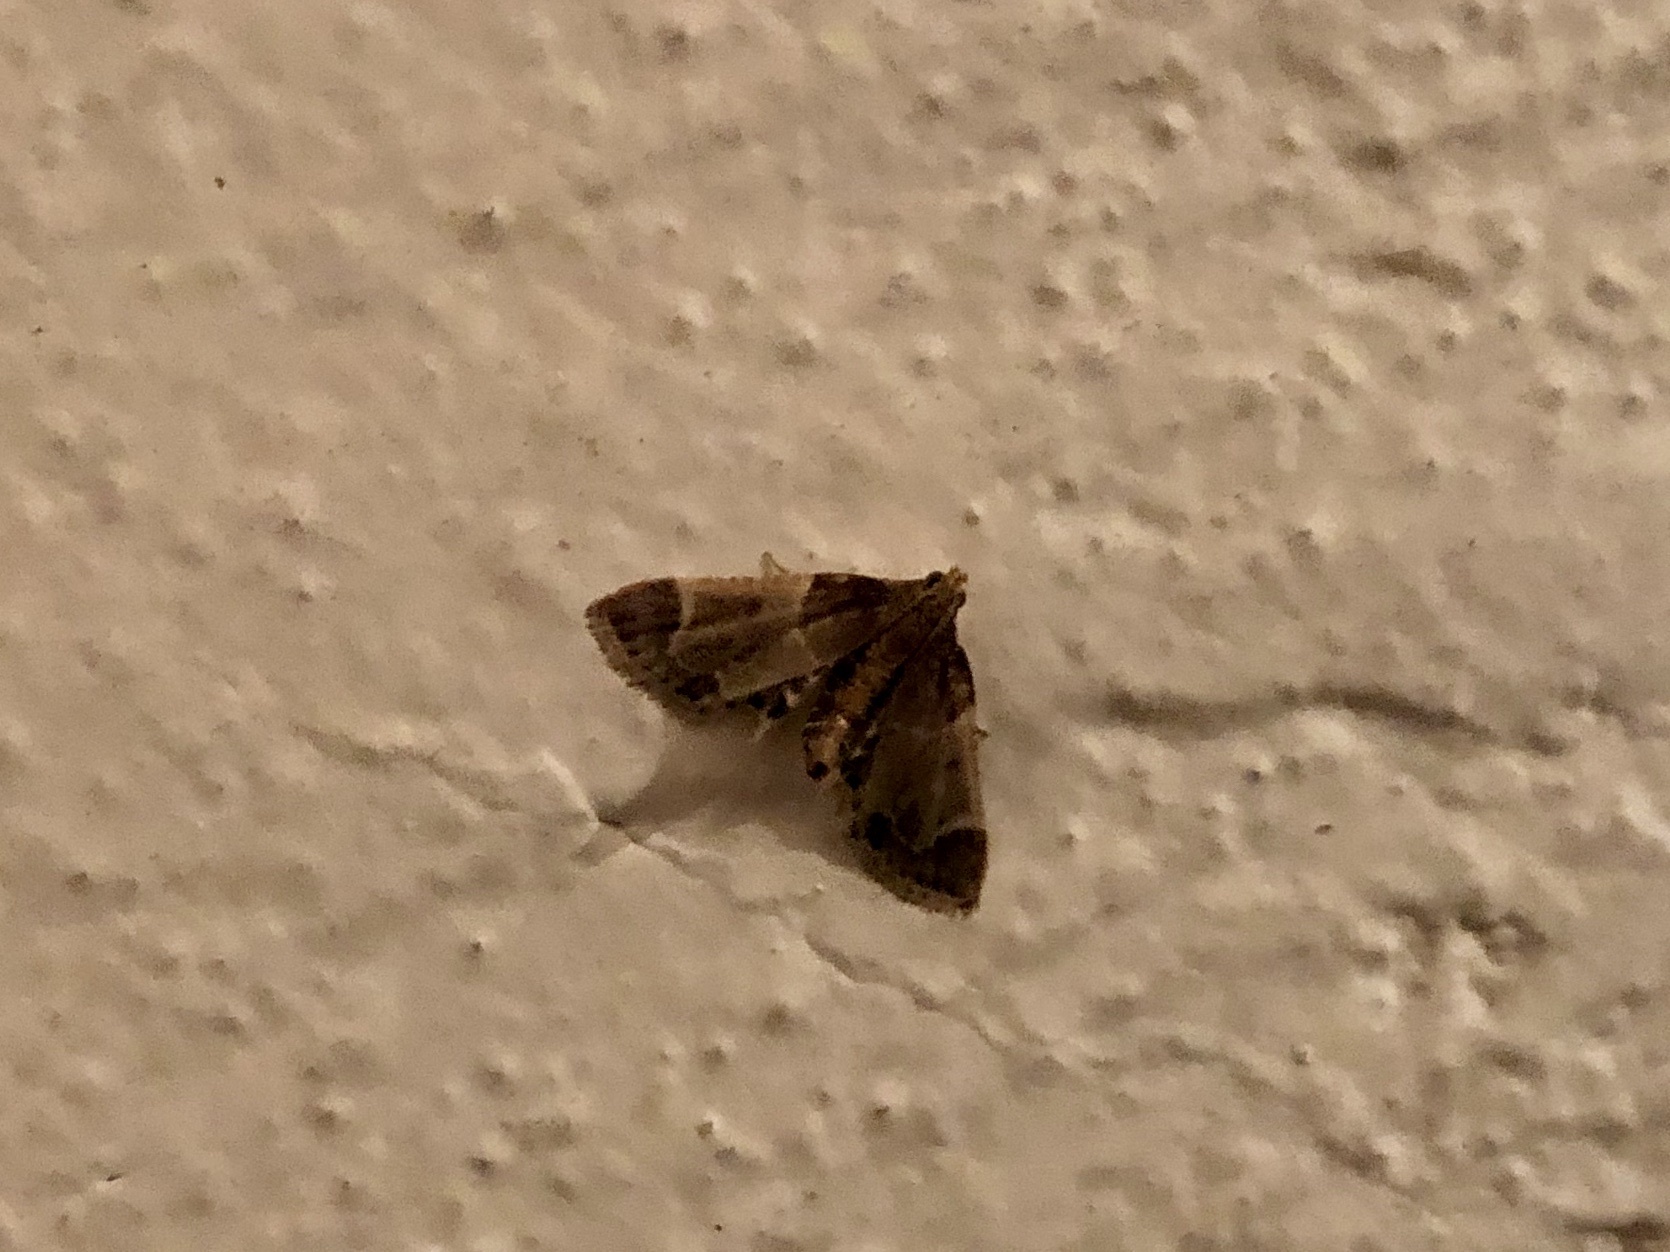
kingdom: Animalia
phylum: Arthropoda
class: Insecta
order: Lepidoptera
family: Pyralidae
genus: Pyralis
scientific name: Pyralis farinalis
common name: Meal moth
